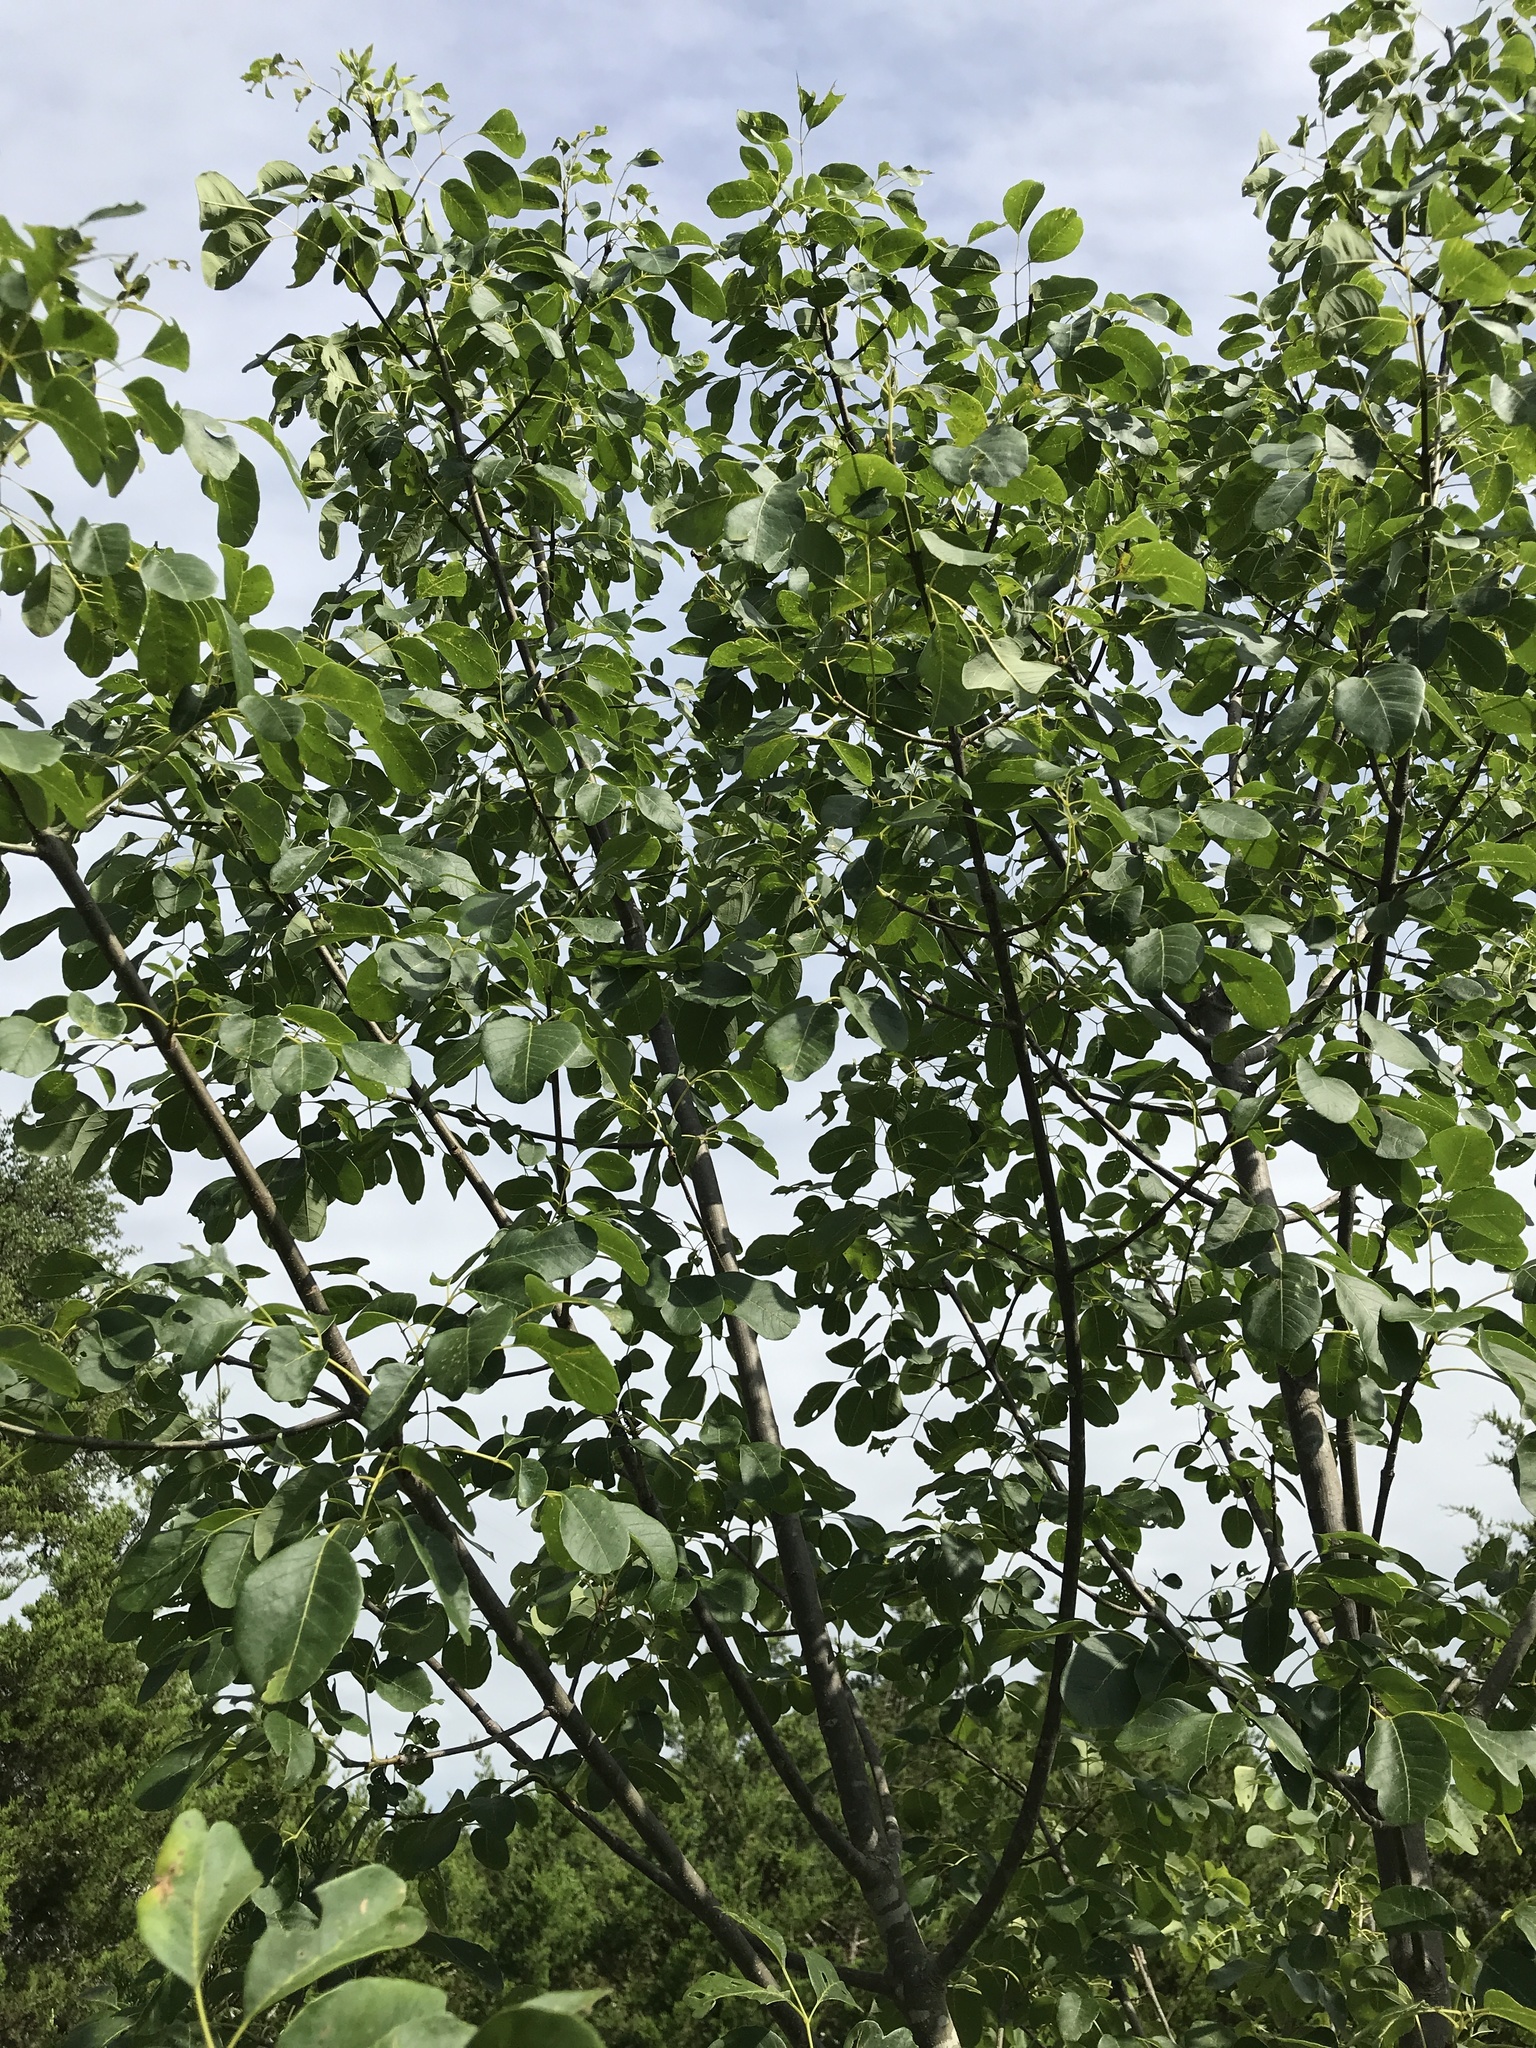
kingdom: Plantae
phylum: Tracheophyta
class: Magnoliopsida
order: Lamiales
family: Oleaceae
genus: Fraxinus
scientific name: Fraxinus albicans
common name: Texas ash
